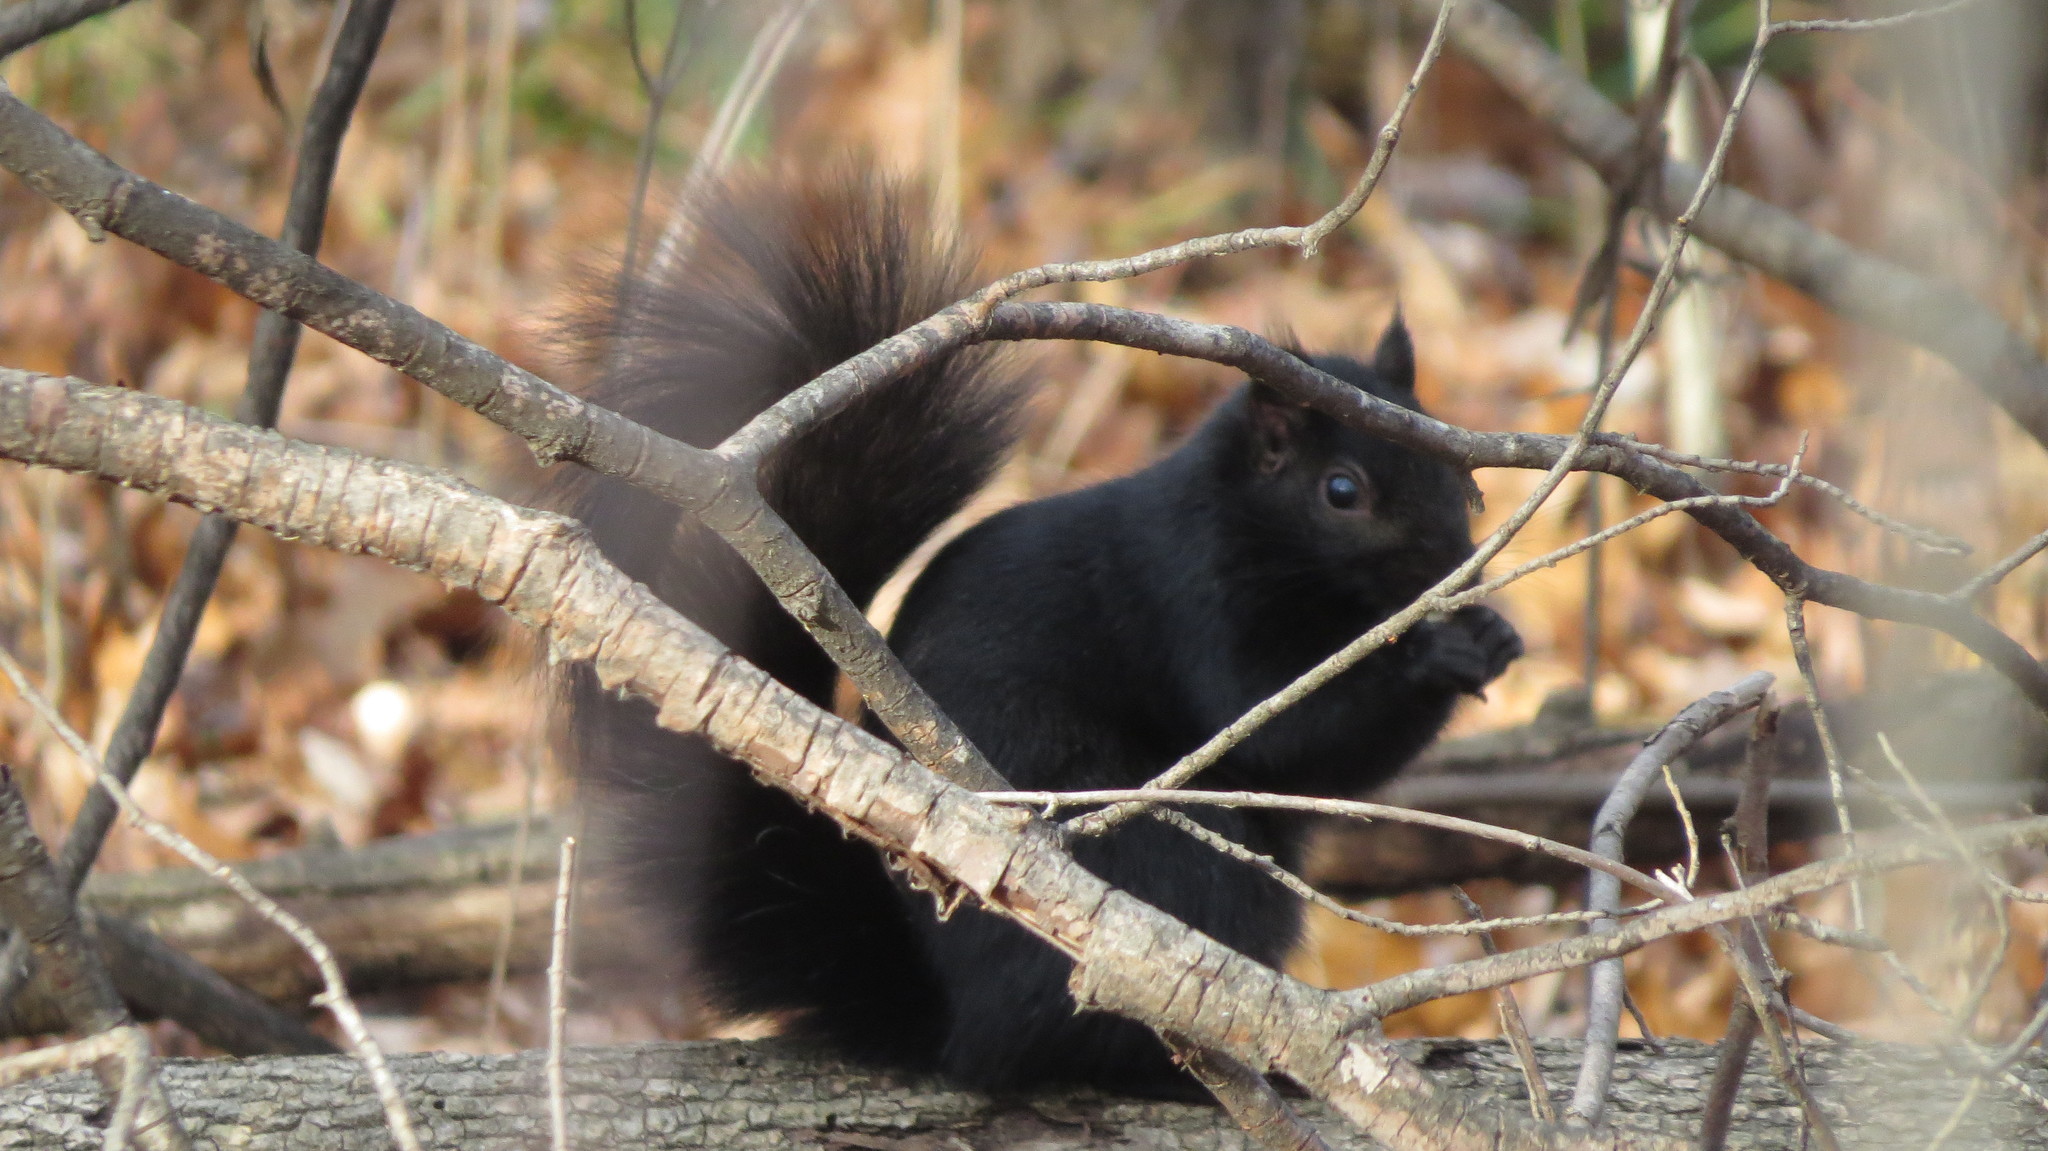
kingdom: Animalia
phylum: Chordata
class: Mammalia
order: Rodentia
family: Sciuridae
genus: Sciurus
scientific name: Sciurus carolinensis
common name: Eastern gray squirrel
